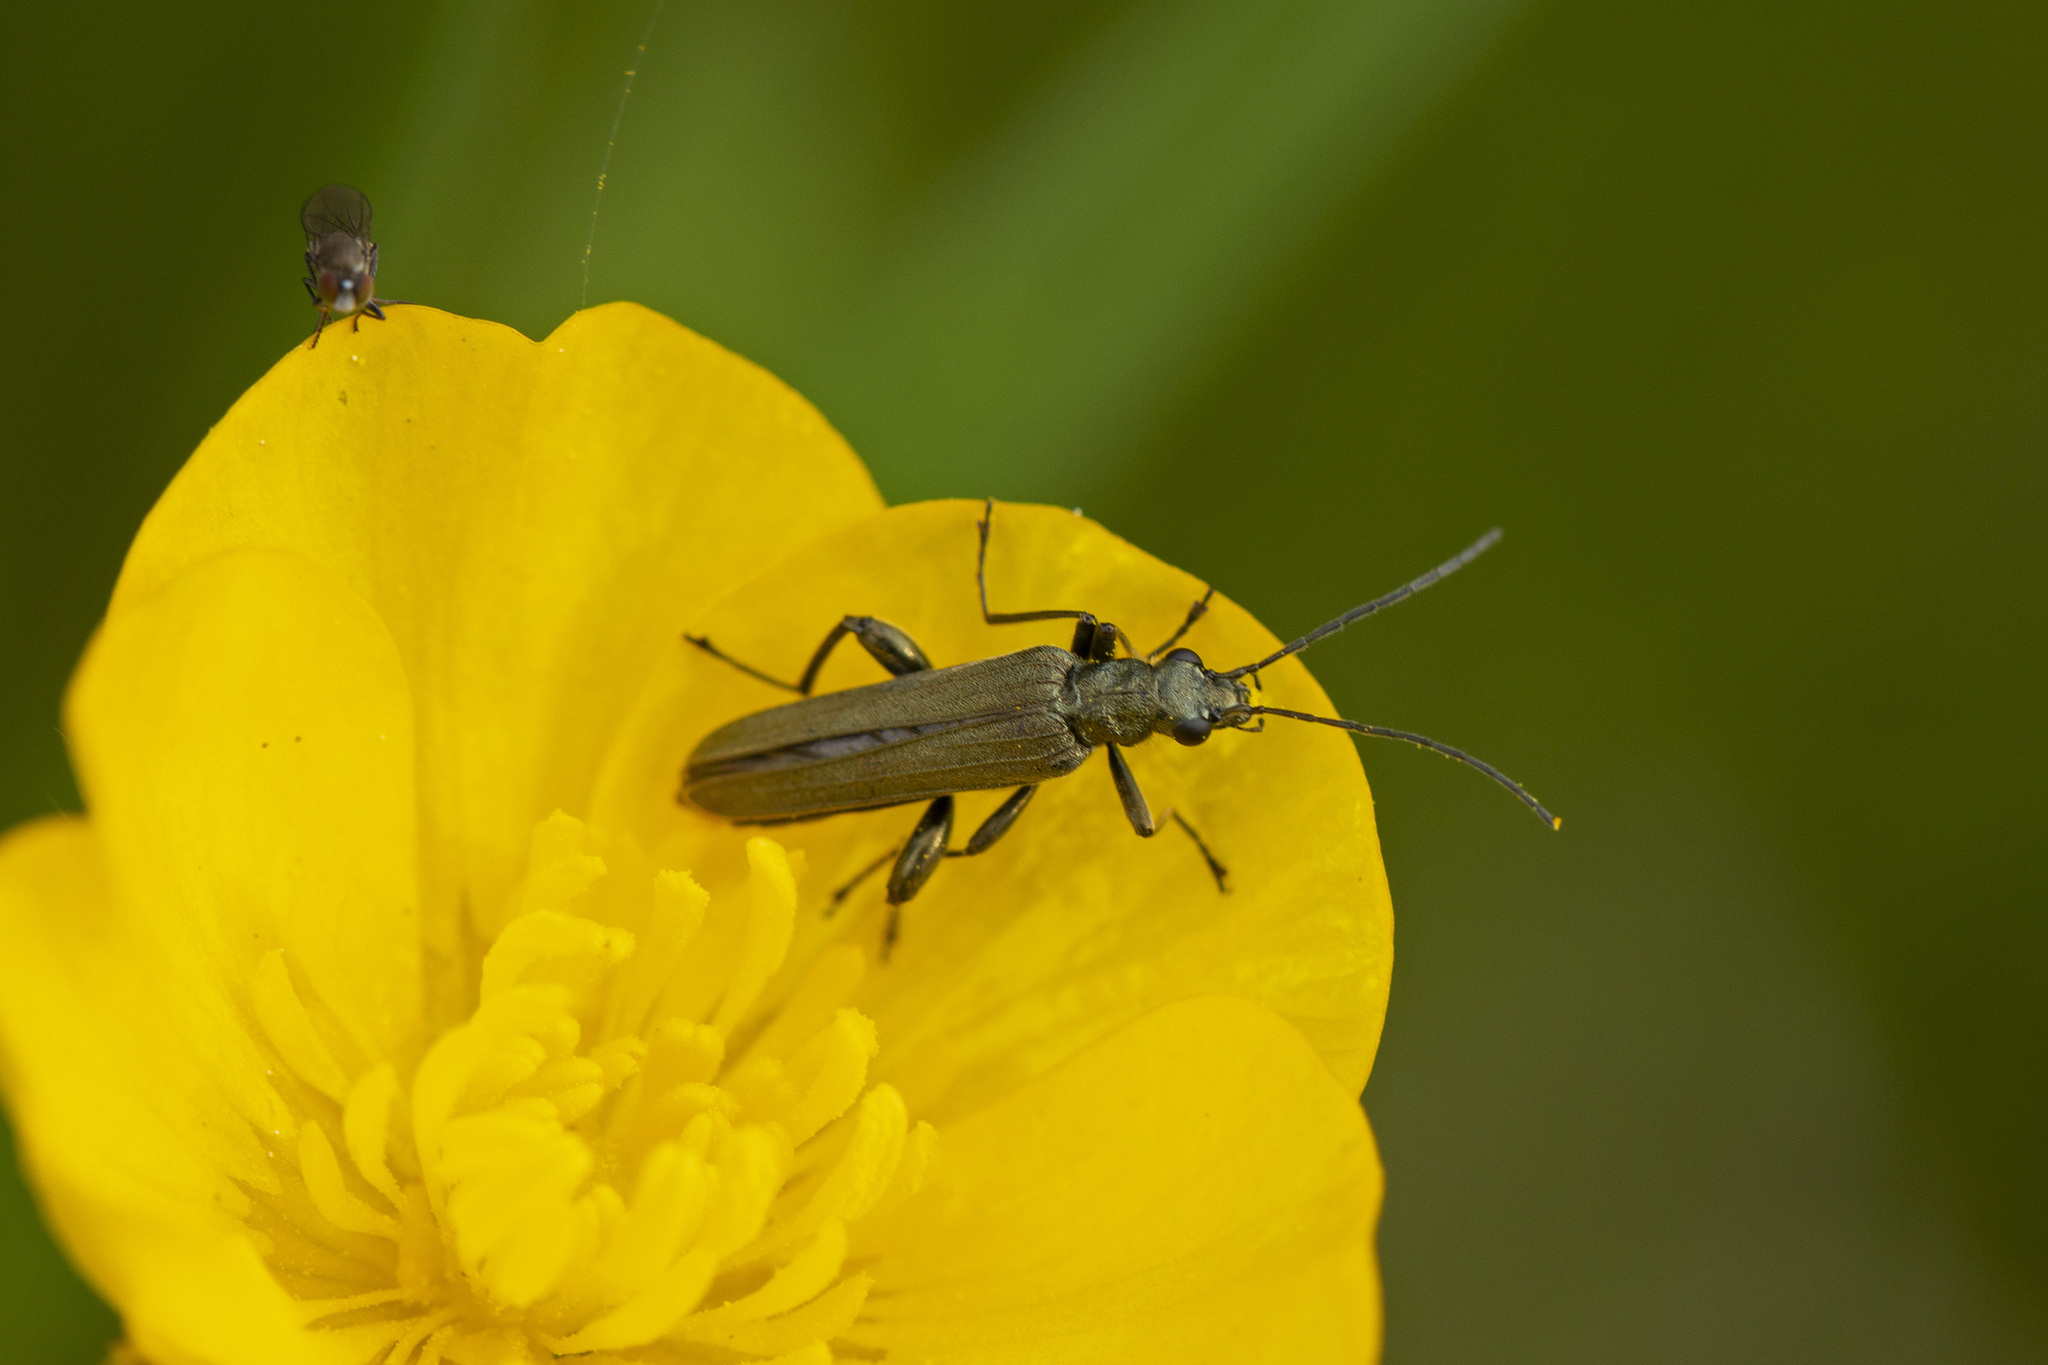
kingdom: Animalia
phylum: Arthropoda
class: Insecta
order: Coleoptera
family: Oedemeridae
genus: Oedemera
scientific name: Oedemera virescens
